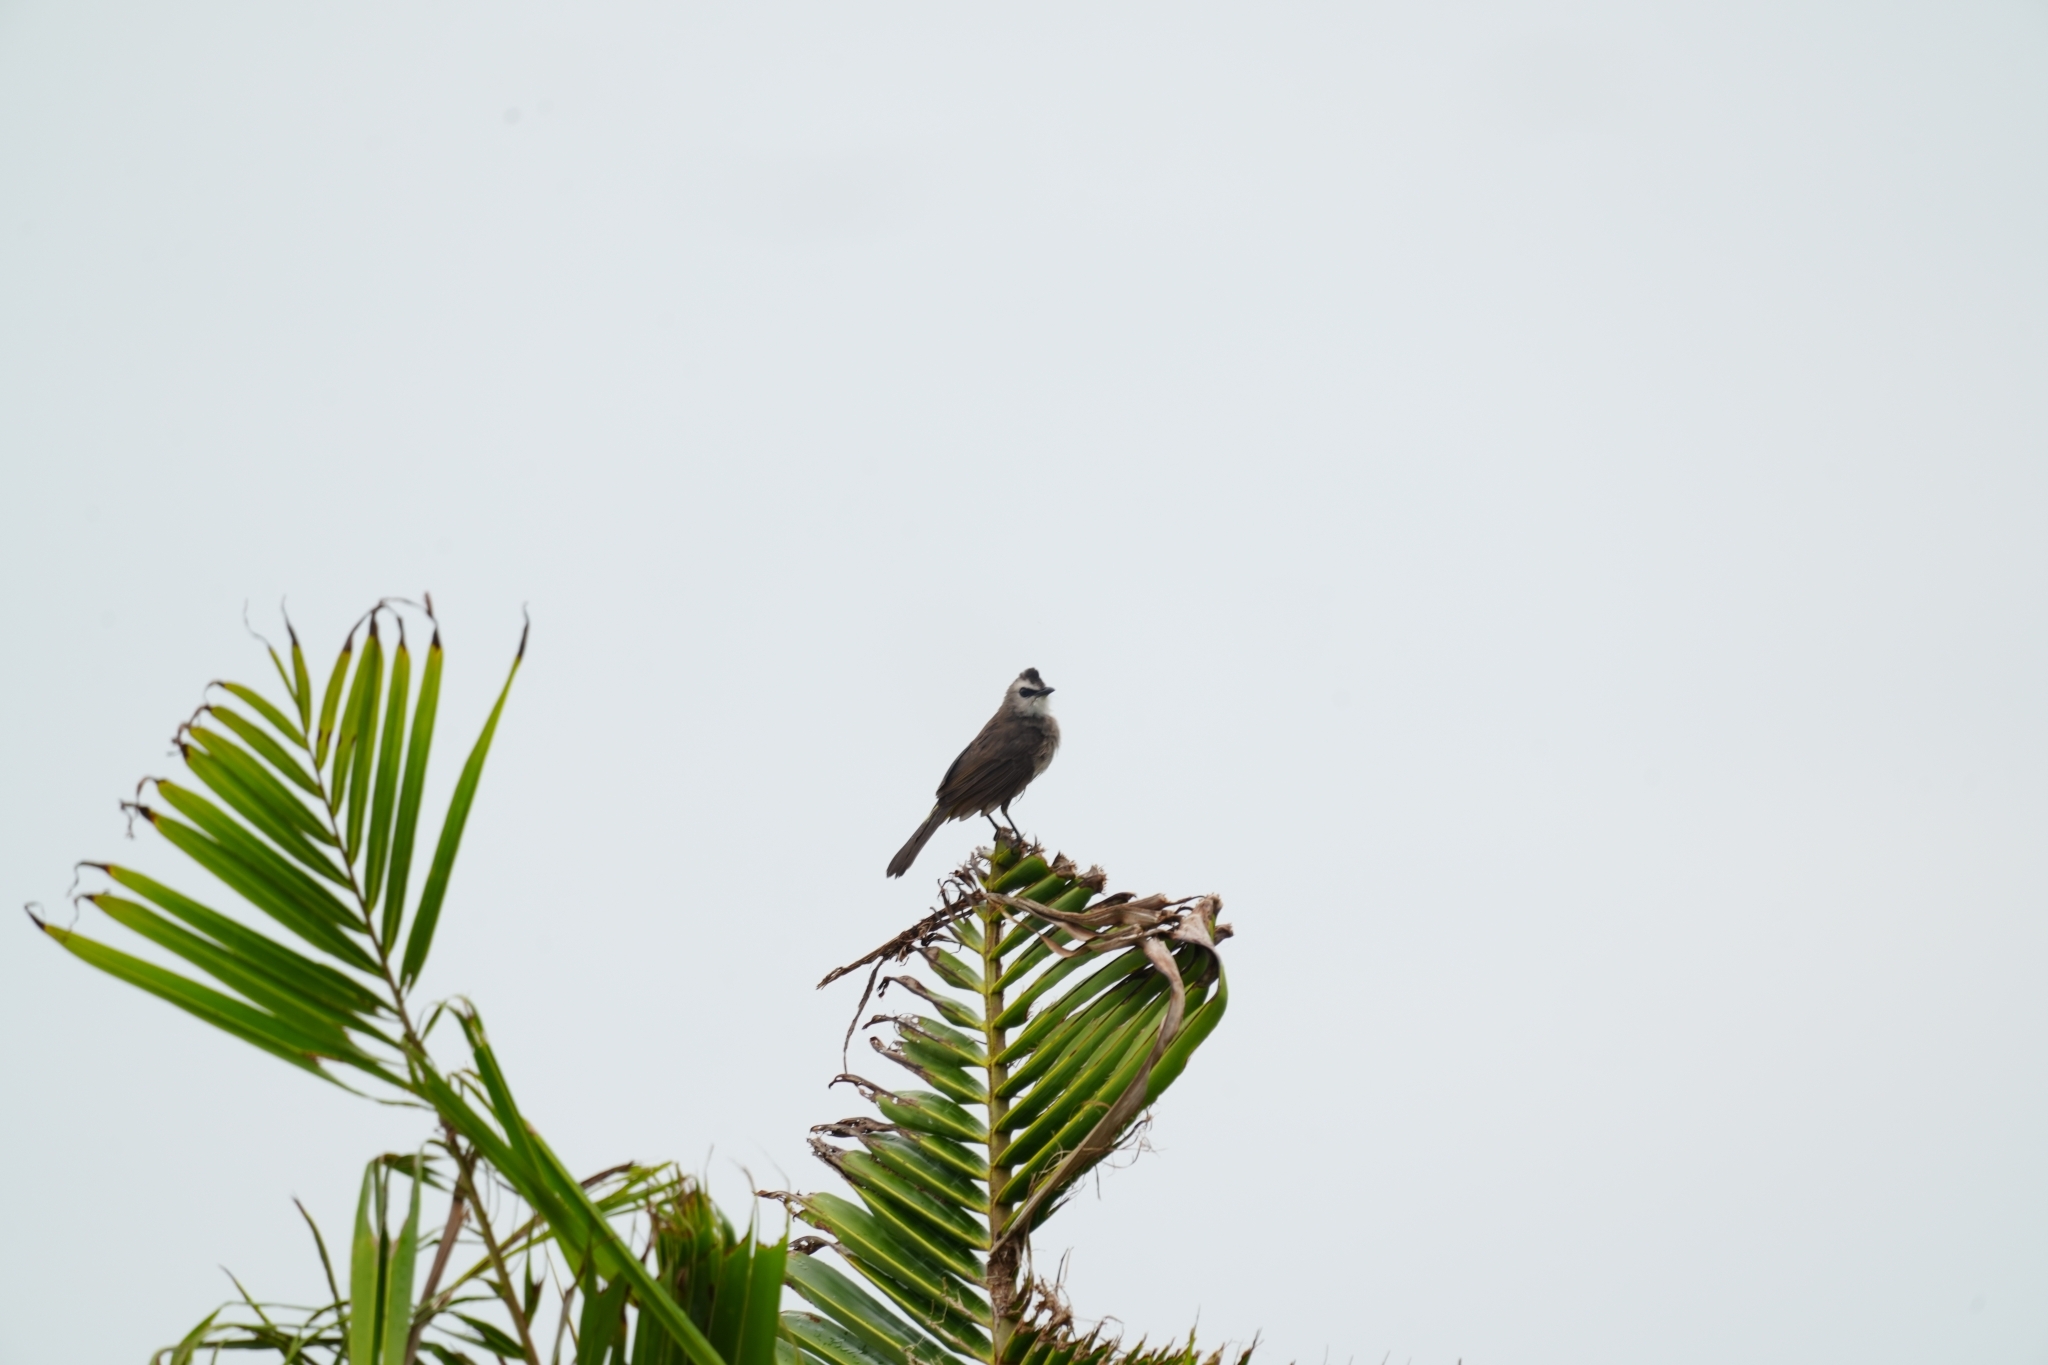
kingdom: Animalia
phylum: Chordata
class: Aves
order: Passeriformes
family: Pycnonotidae
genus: Pycnonotus
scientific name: Pycnonotus goiavier
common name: Yellow-vented bulbul
